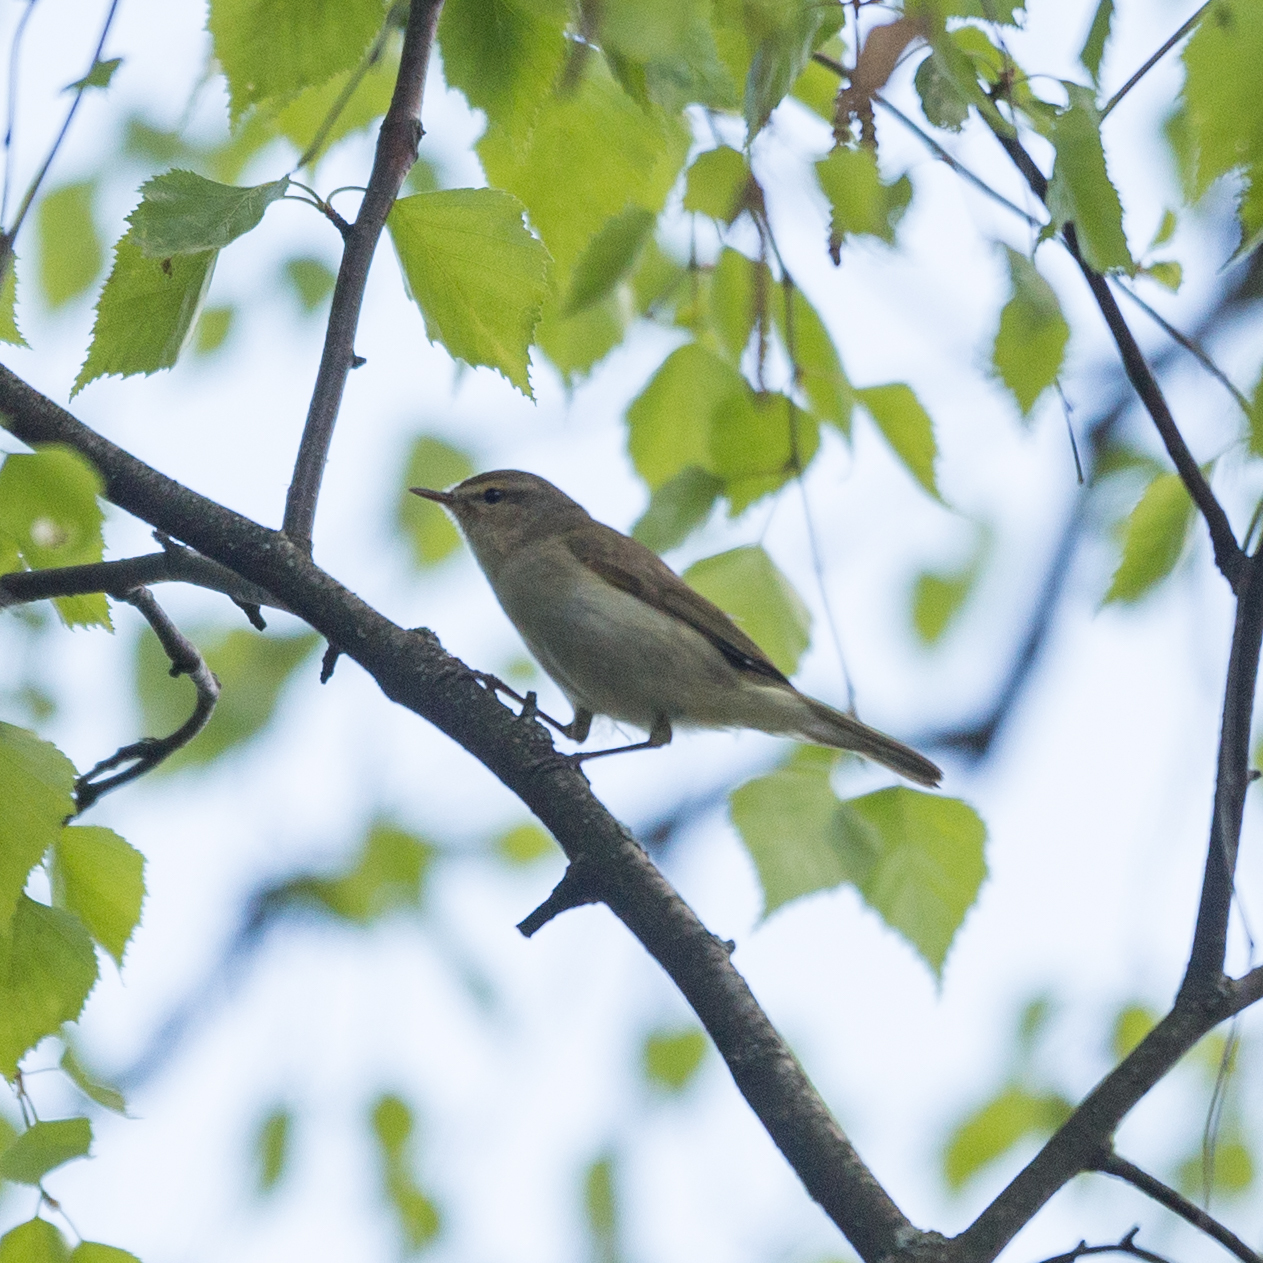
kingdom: Animalia
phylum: Chordata
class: Aves
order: Passeriformes
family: Phylloscopidae
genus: Phylloscopus
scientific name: Phylloscopus collybita
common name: Common chiffchaff
